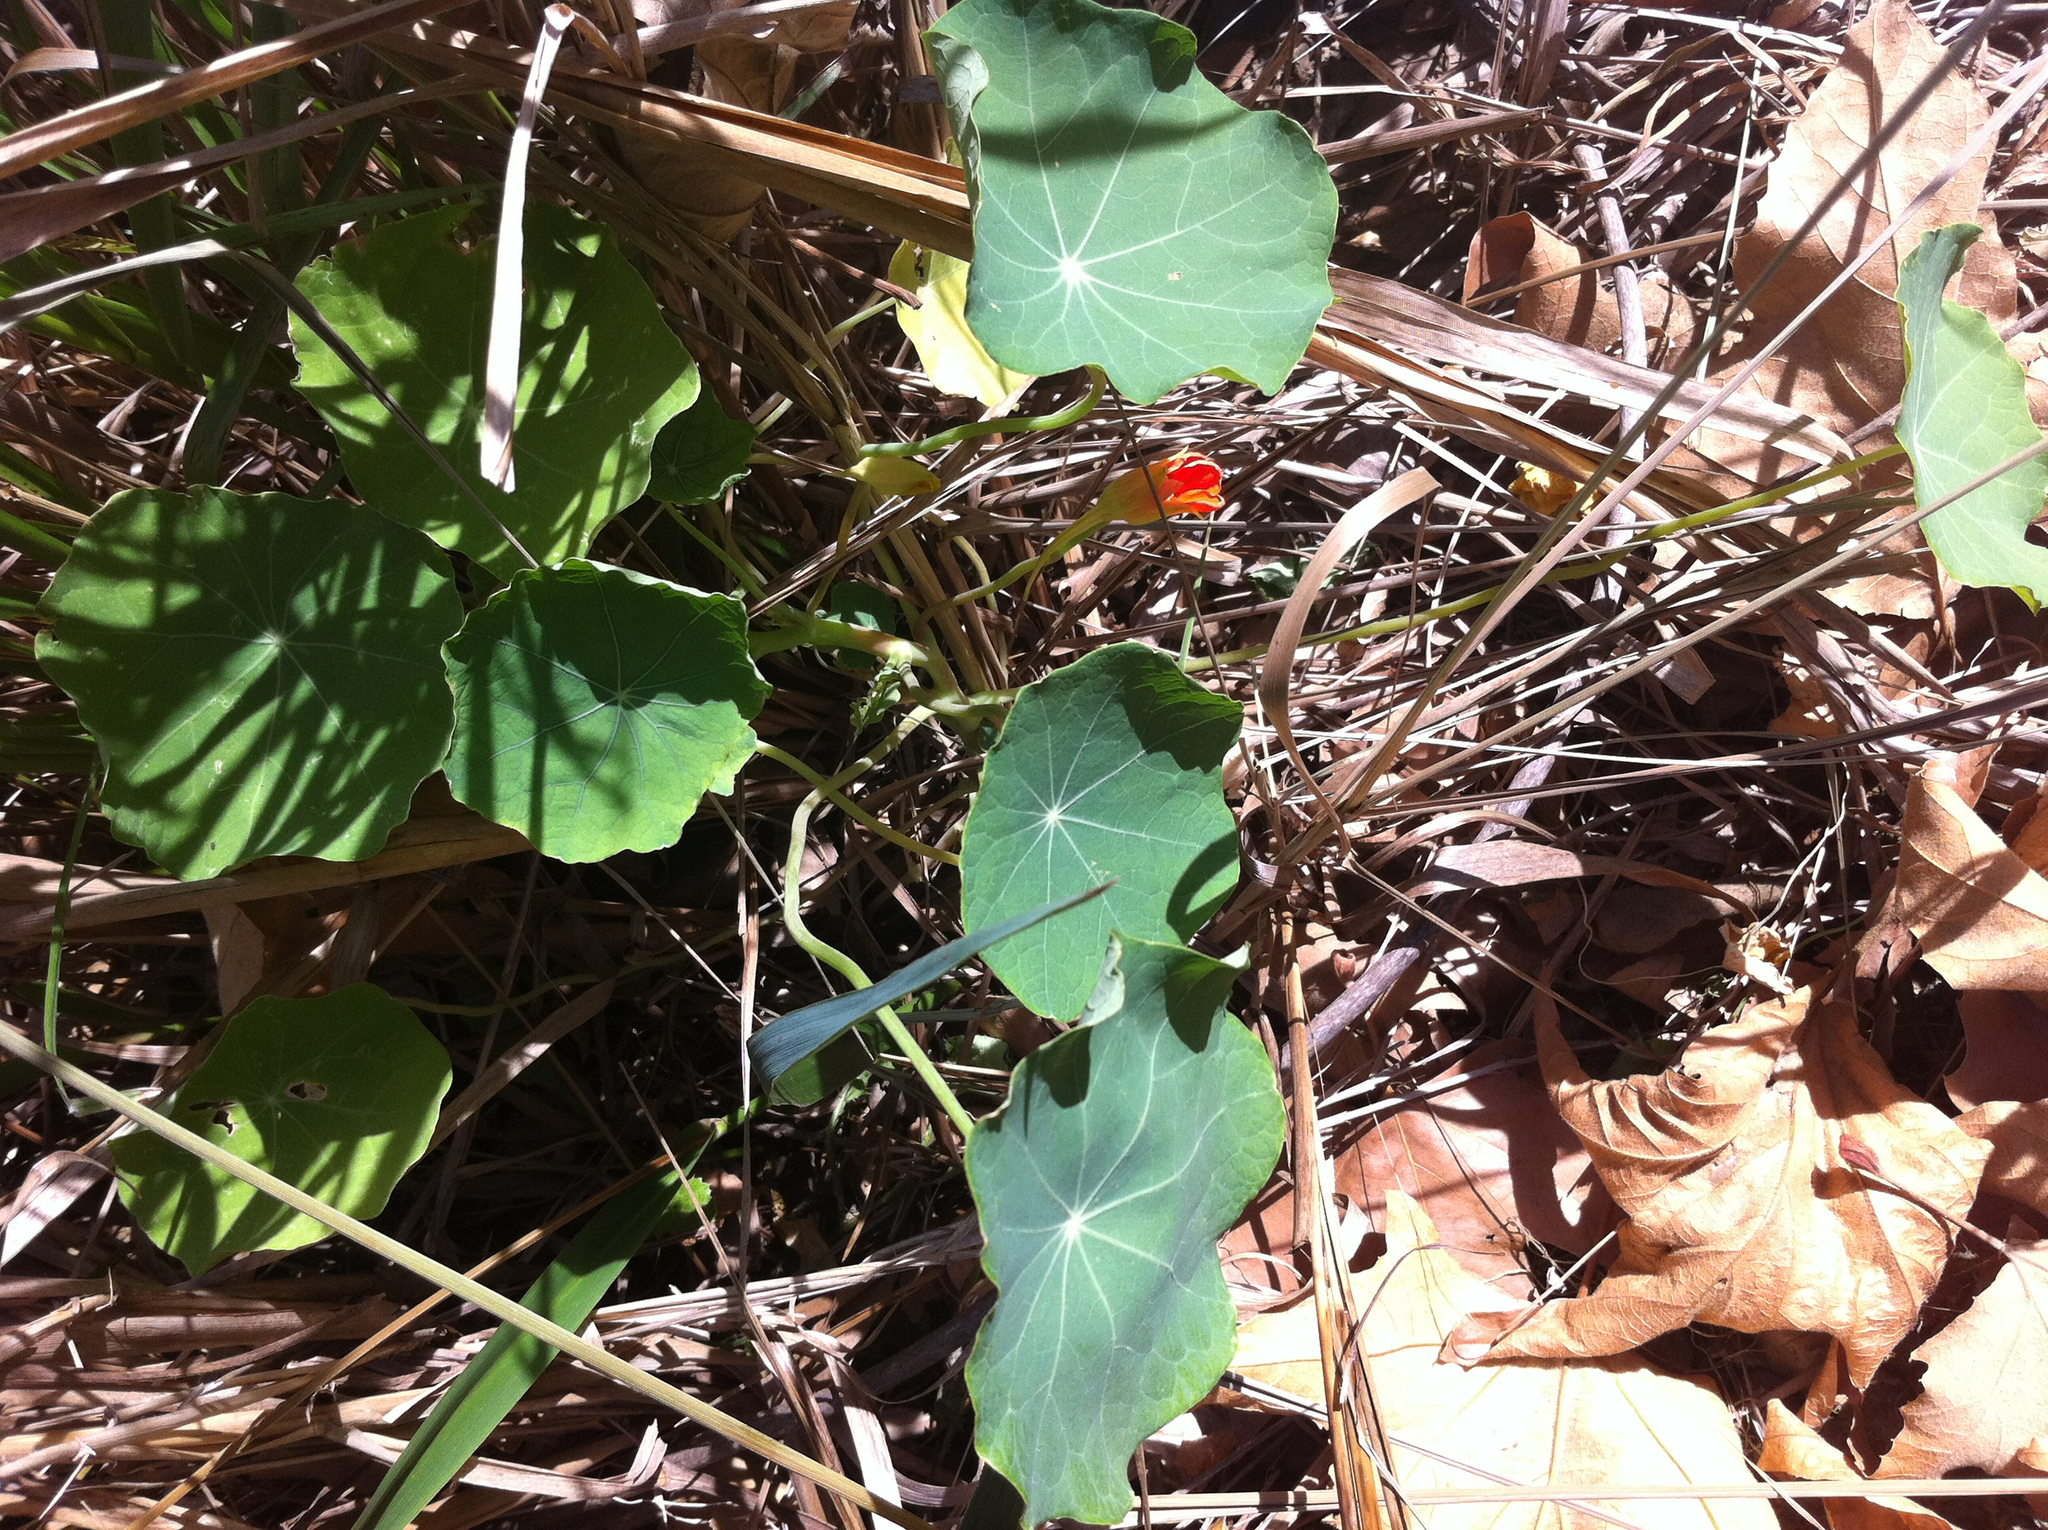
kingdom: Plantae
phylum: Tracheophyta
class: Magnoliopsida
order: Brassicales
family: Tropaeolaceae
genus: Tropaeolum
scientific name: Tropaeolum majus
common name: Nasturtium
